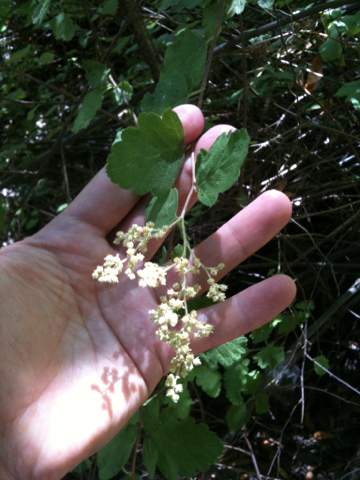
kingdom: Plantae
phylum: Tracheophyta
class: Magnoliopsida
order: Rosales
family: Rosaceae
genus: Holodiscus
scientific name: Holodiscus discolor
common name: Oceanspray
